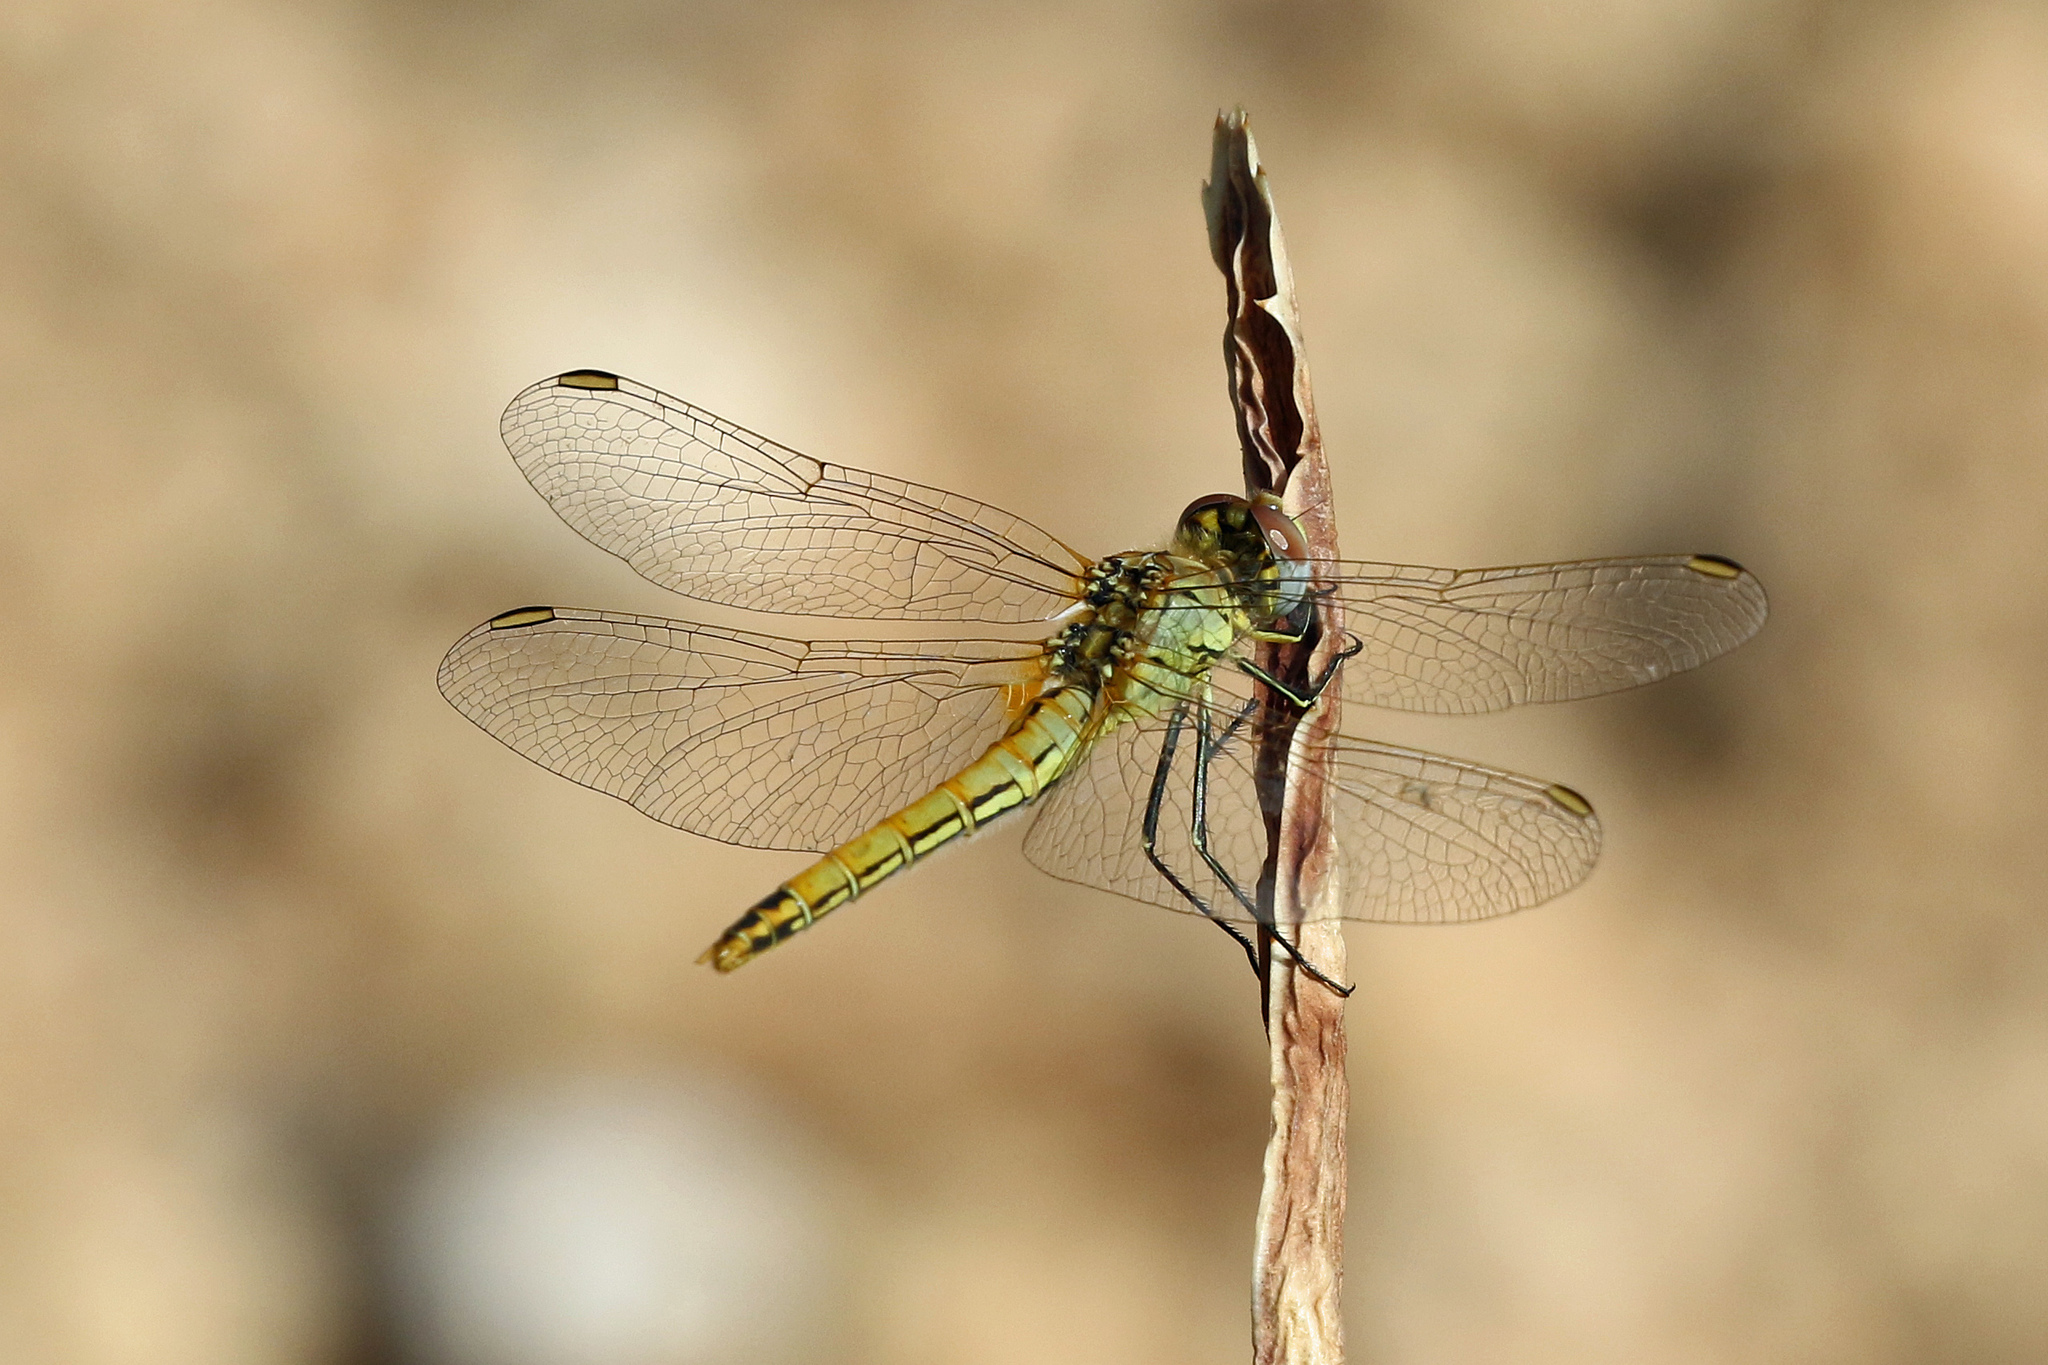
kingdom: Animalia
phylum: Arthropoda
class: Insecta
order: Odonata
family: Libellulidae
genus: Sympetrum
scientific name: Sympetrum fonscolombii
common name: Red-veined darter
